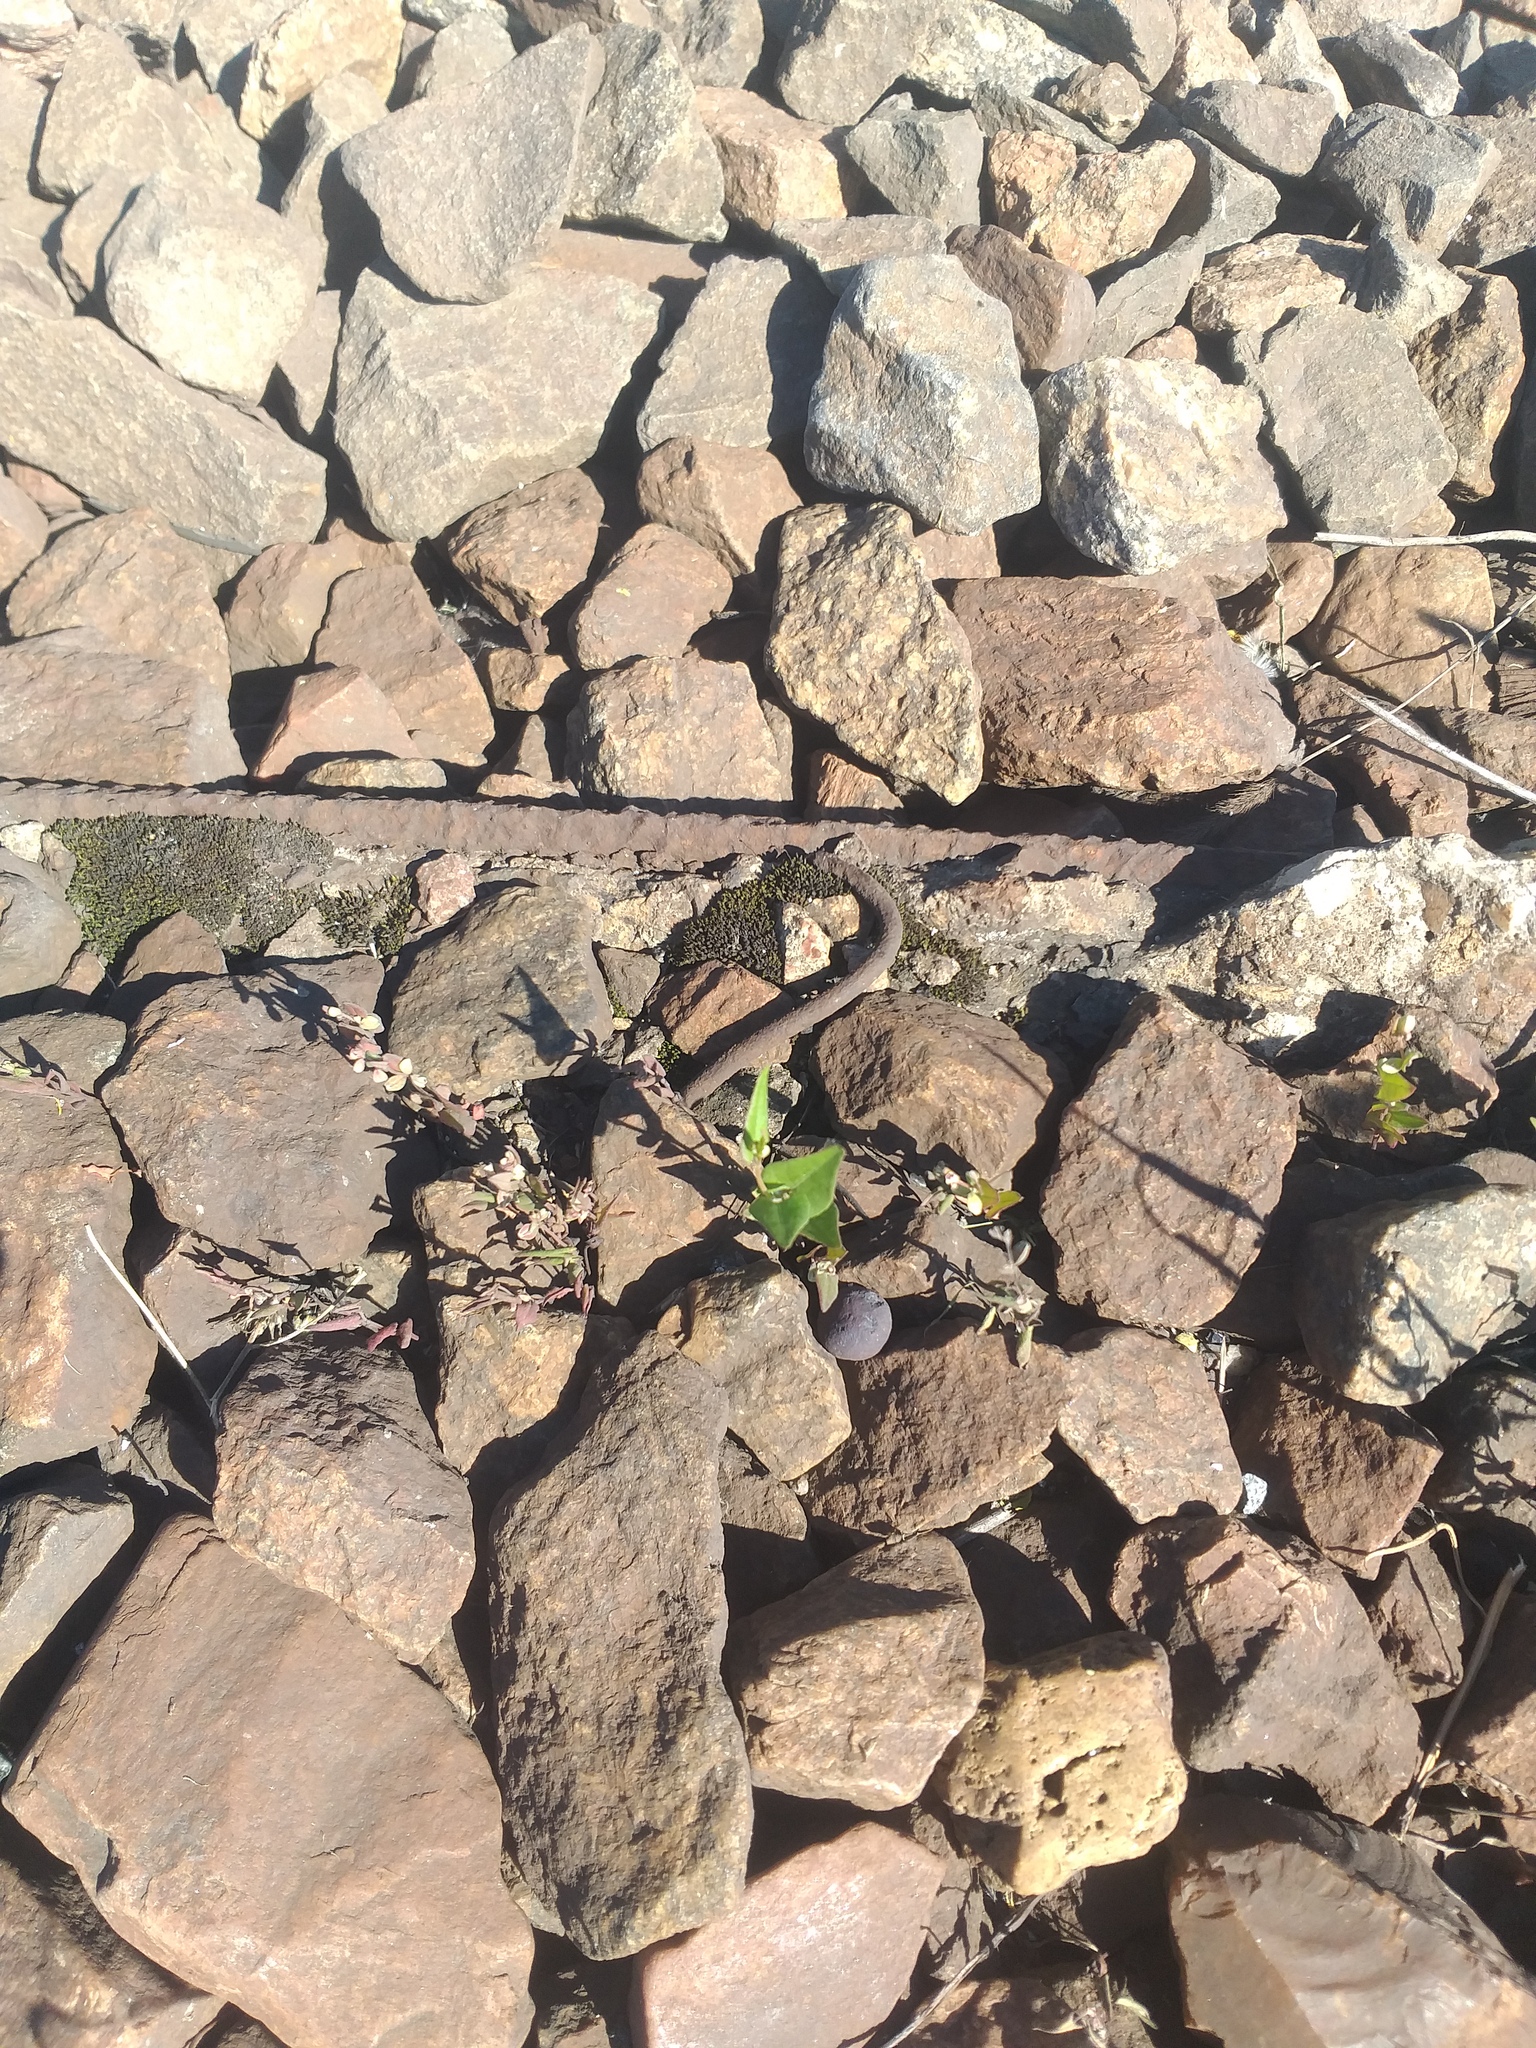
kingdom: Plantae
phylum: Tracheophyta
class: Magnoliopsida
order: Caryophyllales
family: Polygonaceae
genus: Fallopia
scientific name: Fallopia convolvulus
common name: Black bindweed
